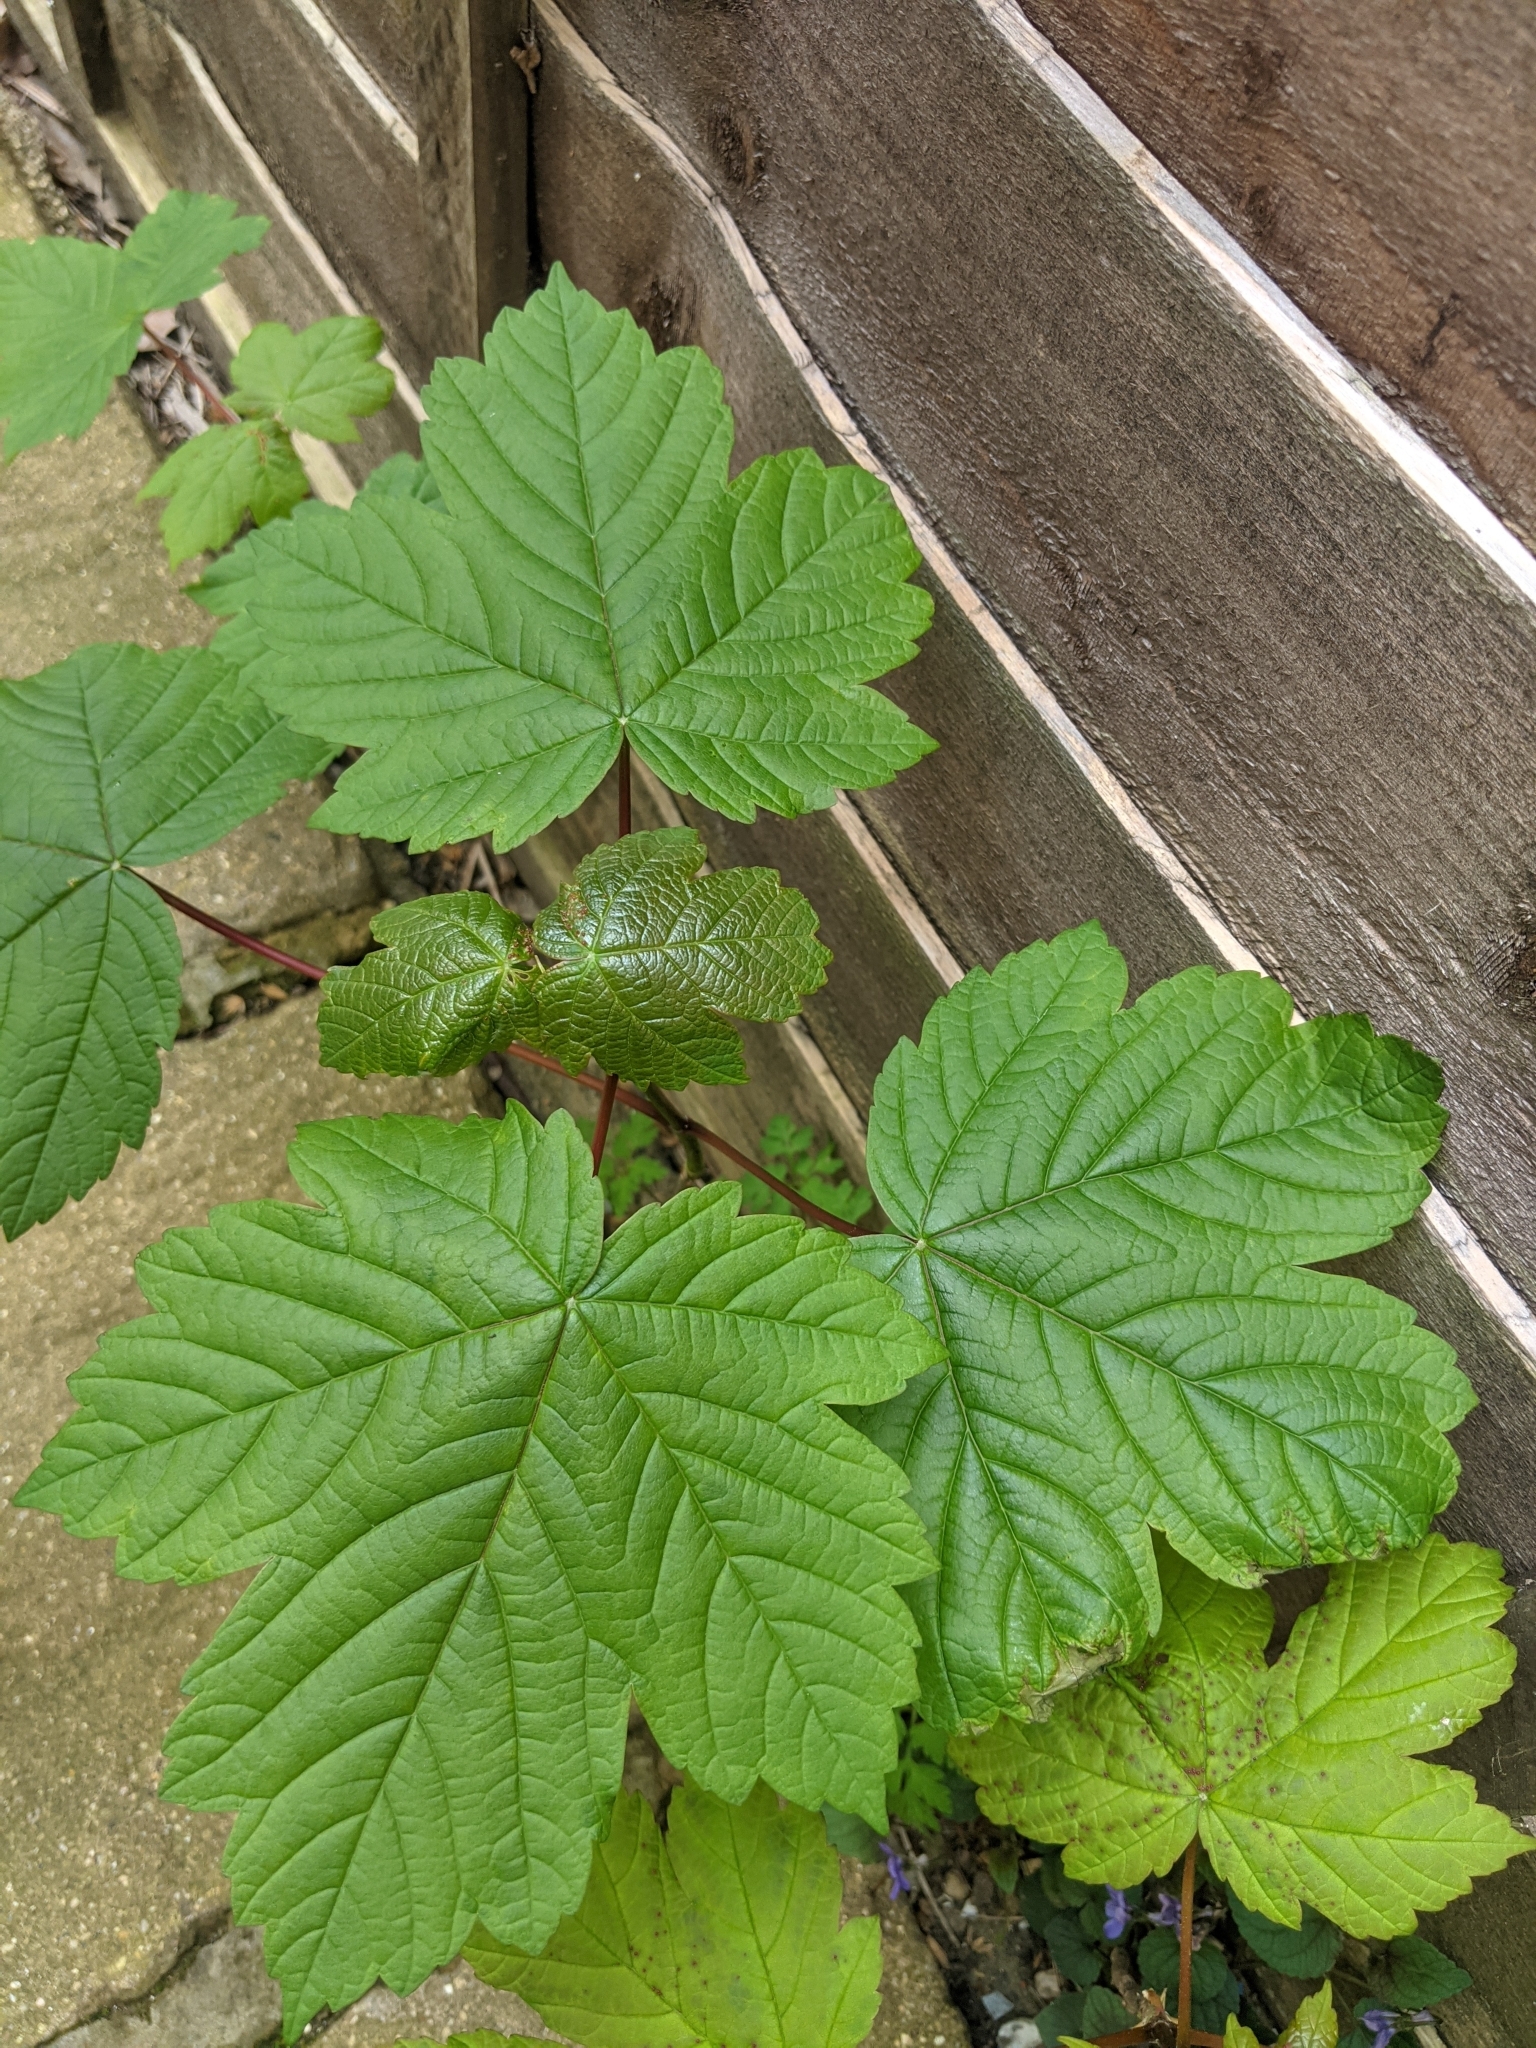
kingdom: Plantae
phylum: Tracheophyta
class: Magnoliopsida
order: Sapindales
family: Sapindaceae
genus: Acer
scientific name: Acer pseudoplatanus
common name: Sycamore
